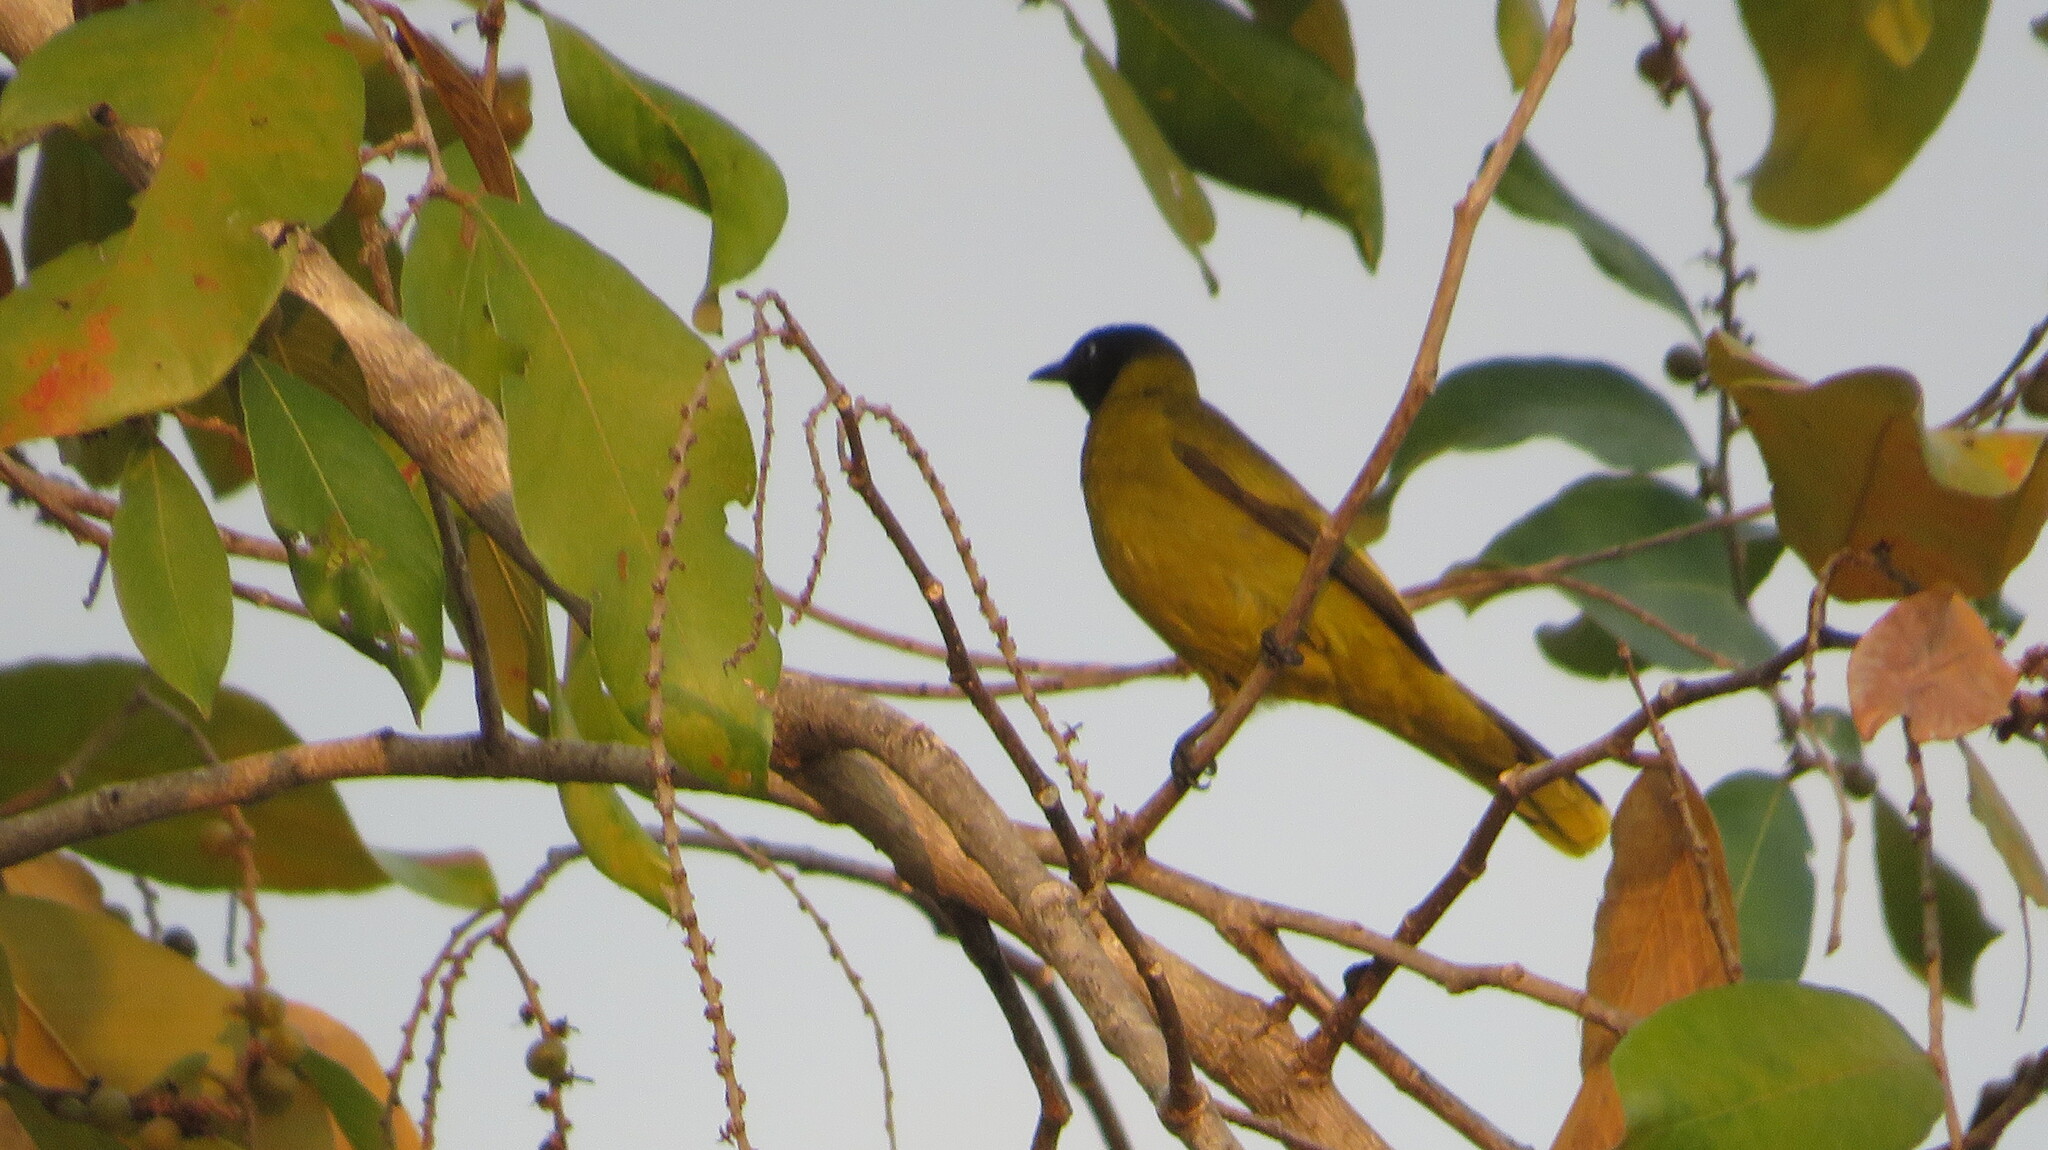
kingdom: Animalia
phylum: Chordata
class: Aves
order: Passeriformes
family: Pycnonotidae
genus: Microtarsus
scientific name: Microtarsus
